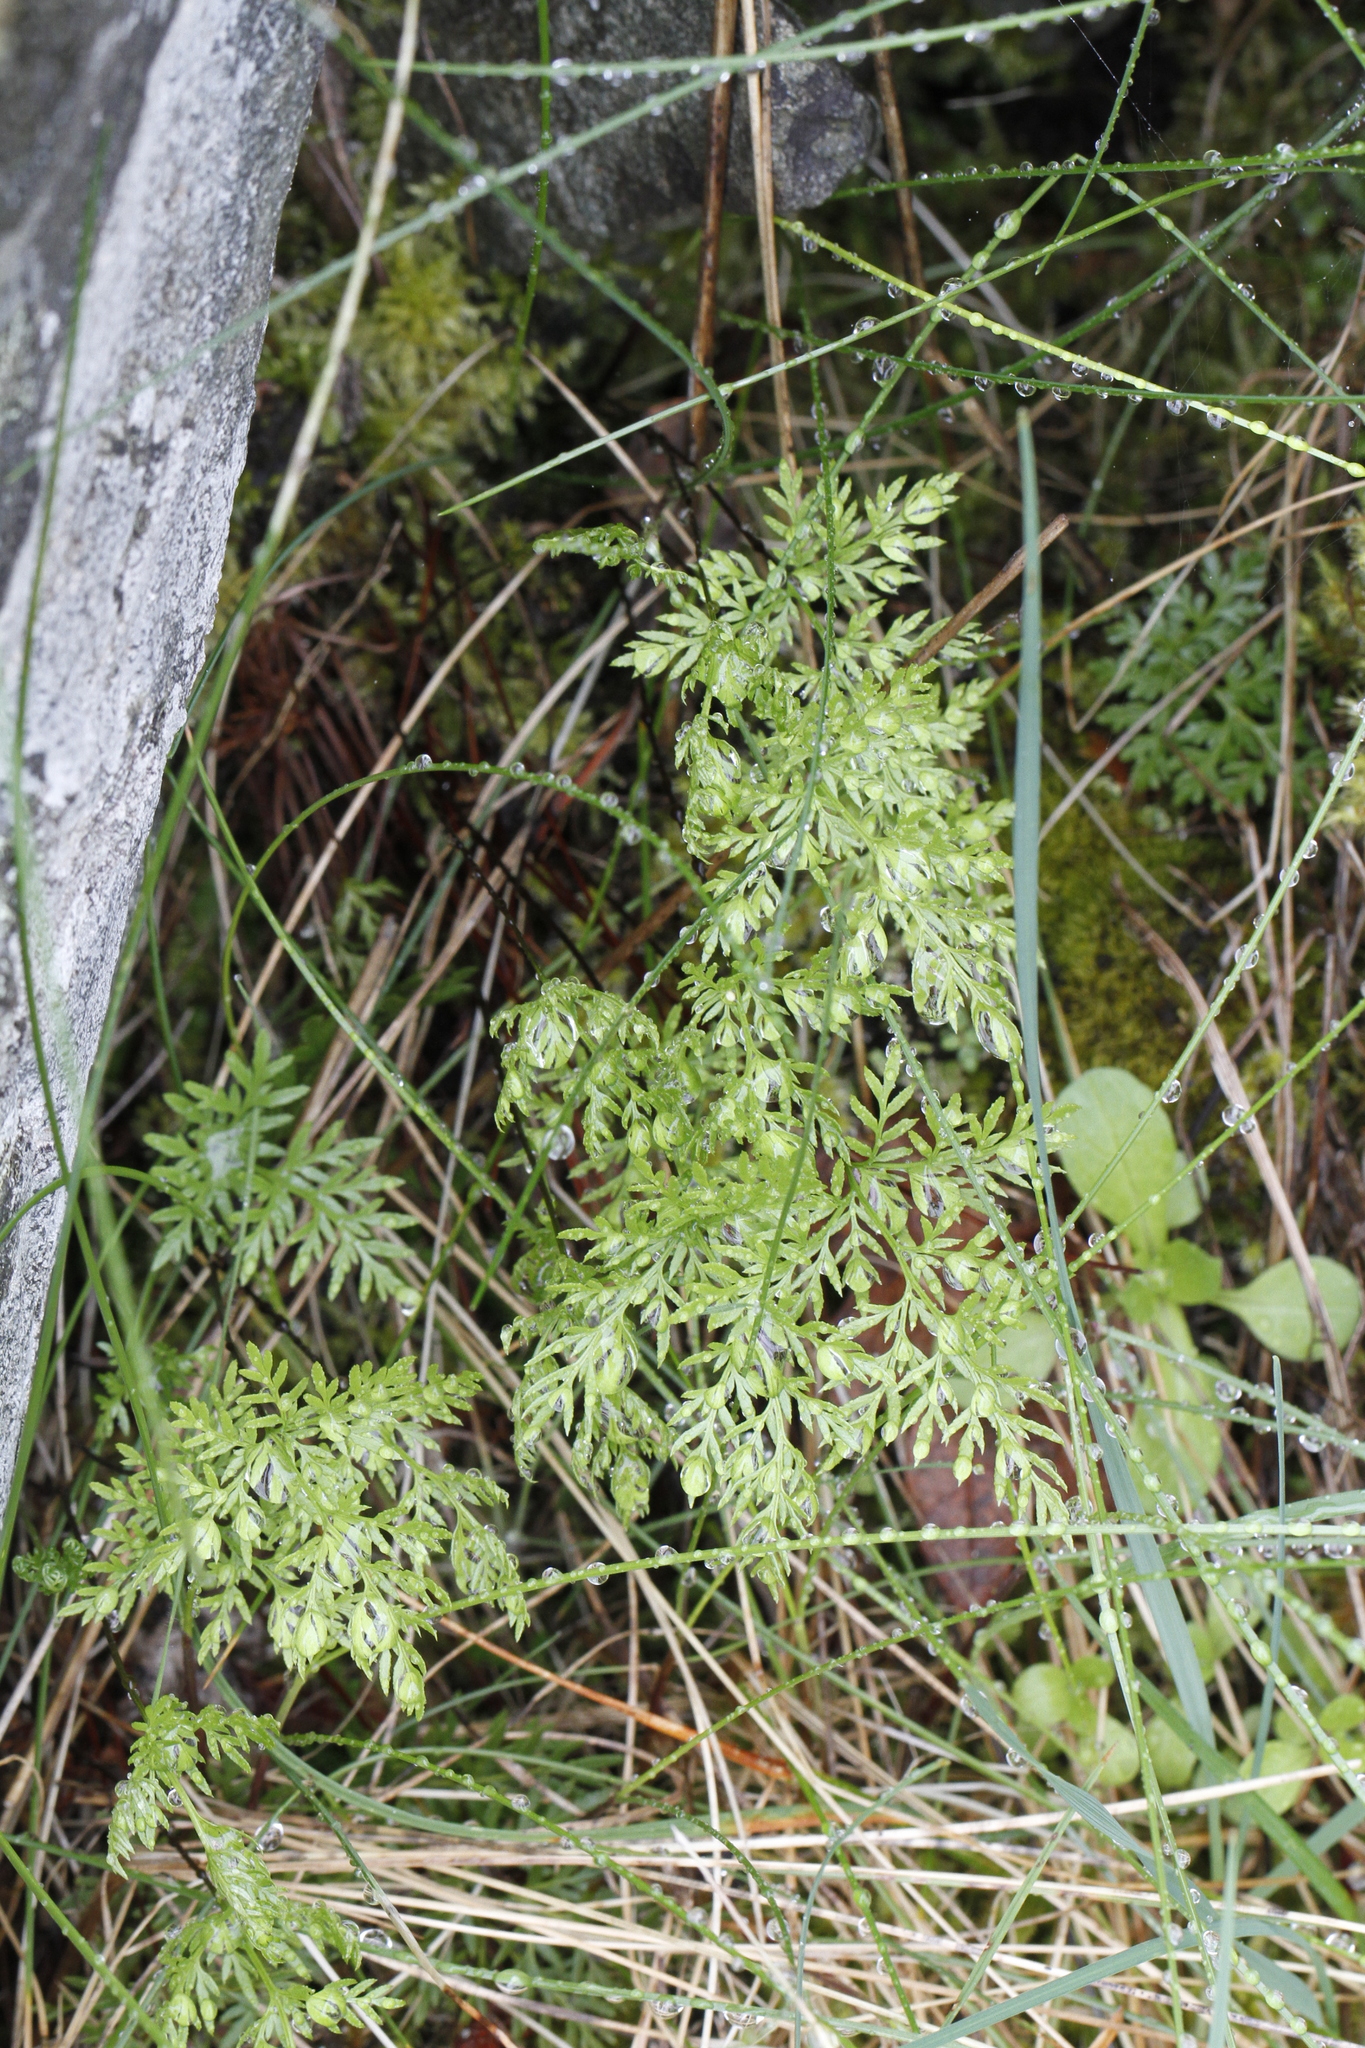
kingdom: Plantae
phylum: Tracheophyta
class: Polypodiopsida
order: Polypodiales
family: Pteridaceae
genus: Aspidotis
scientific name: Aspidotis densa
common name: Indian's dream
